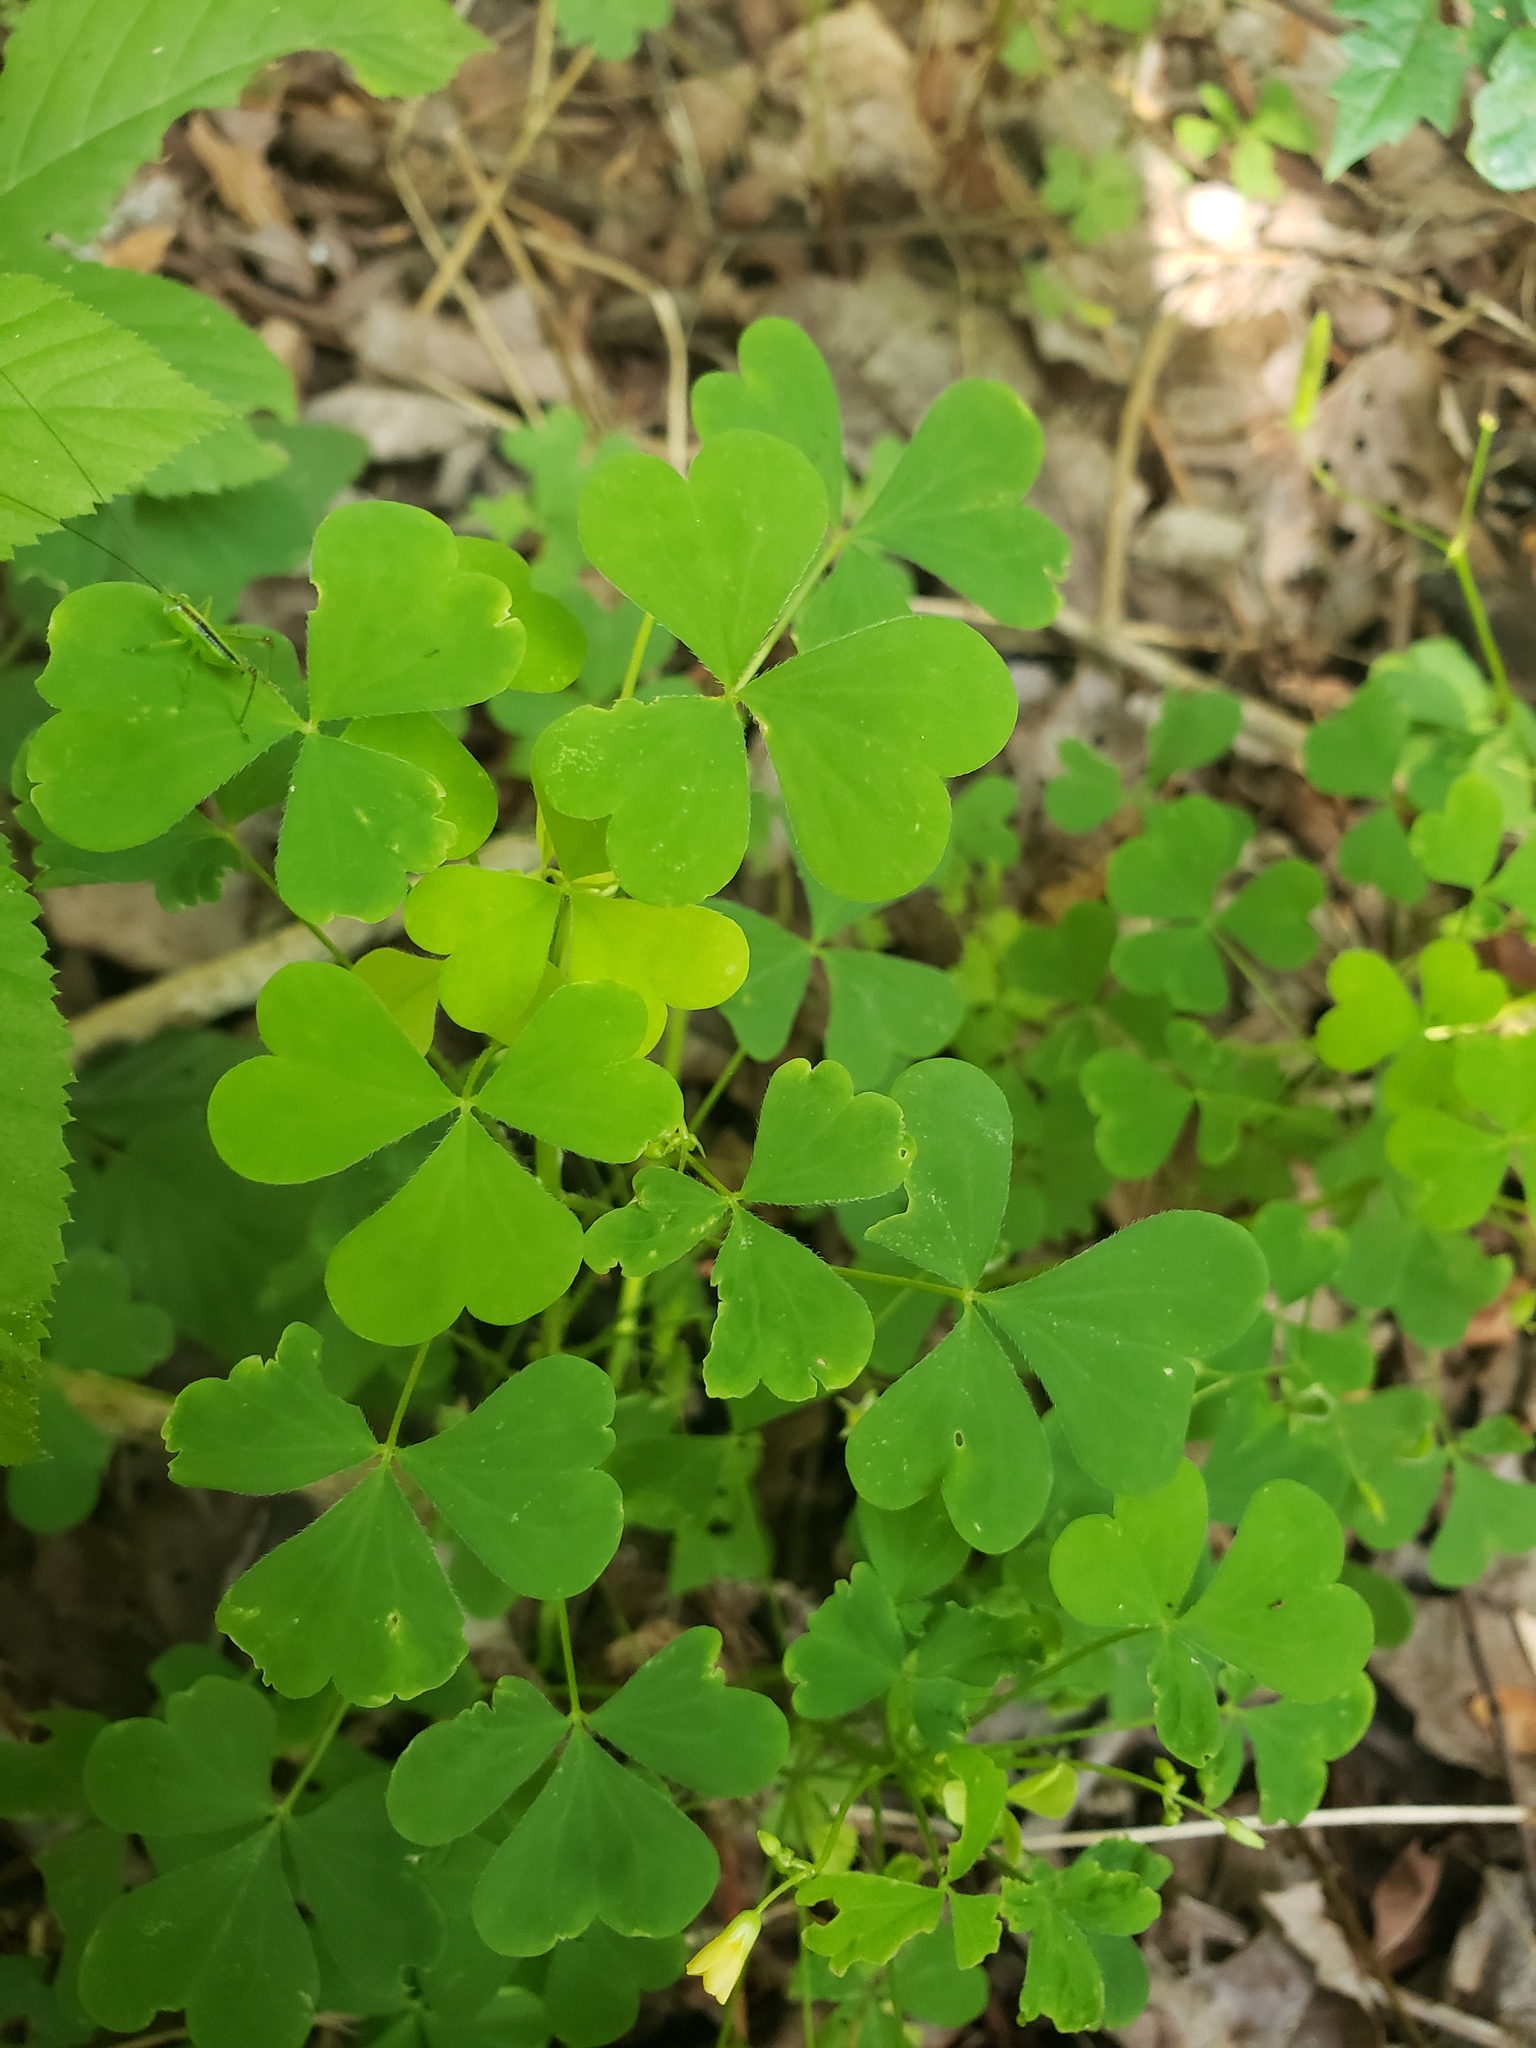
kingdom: Plantae
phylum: Tracheophyta
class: Magnoliopsida
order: Oxalidales
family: Oxalidaceae
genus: Oxalis
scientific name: Oxalis stricta
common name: Upright yellow-sorrel
